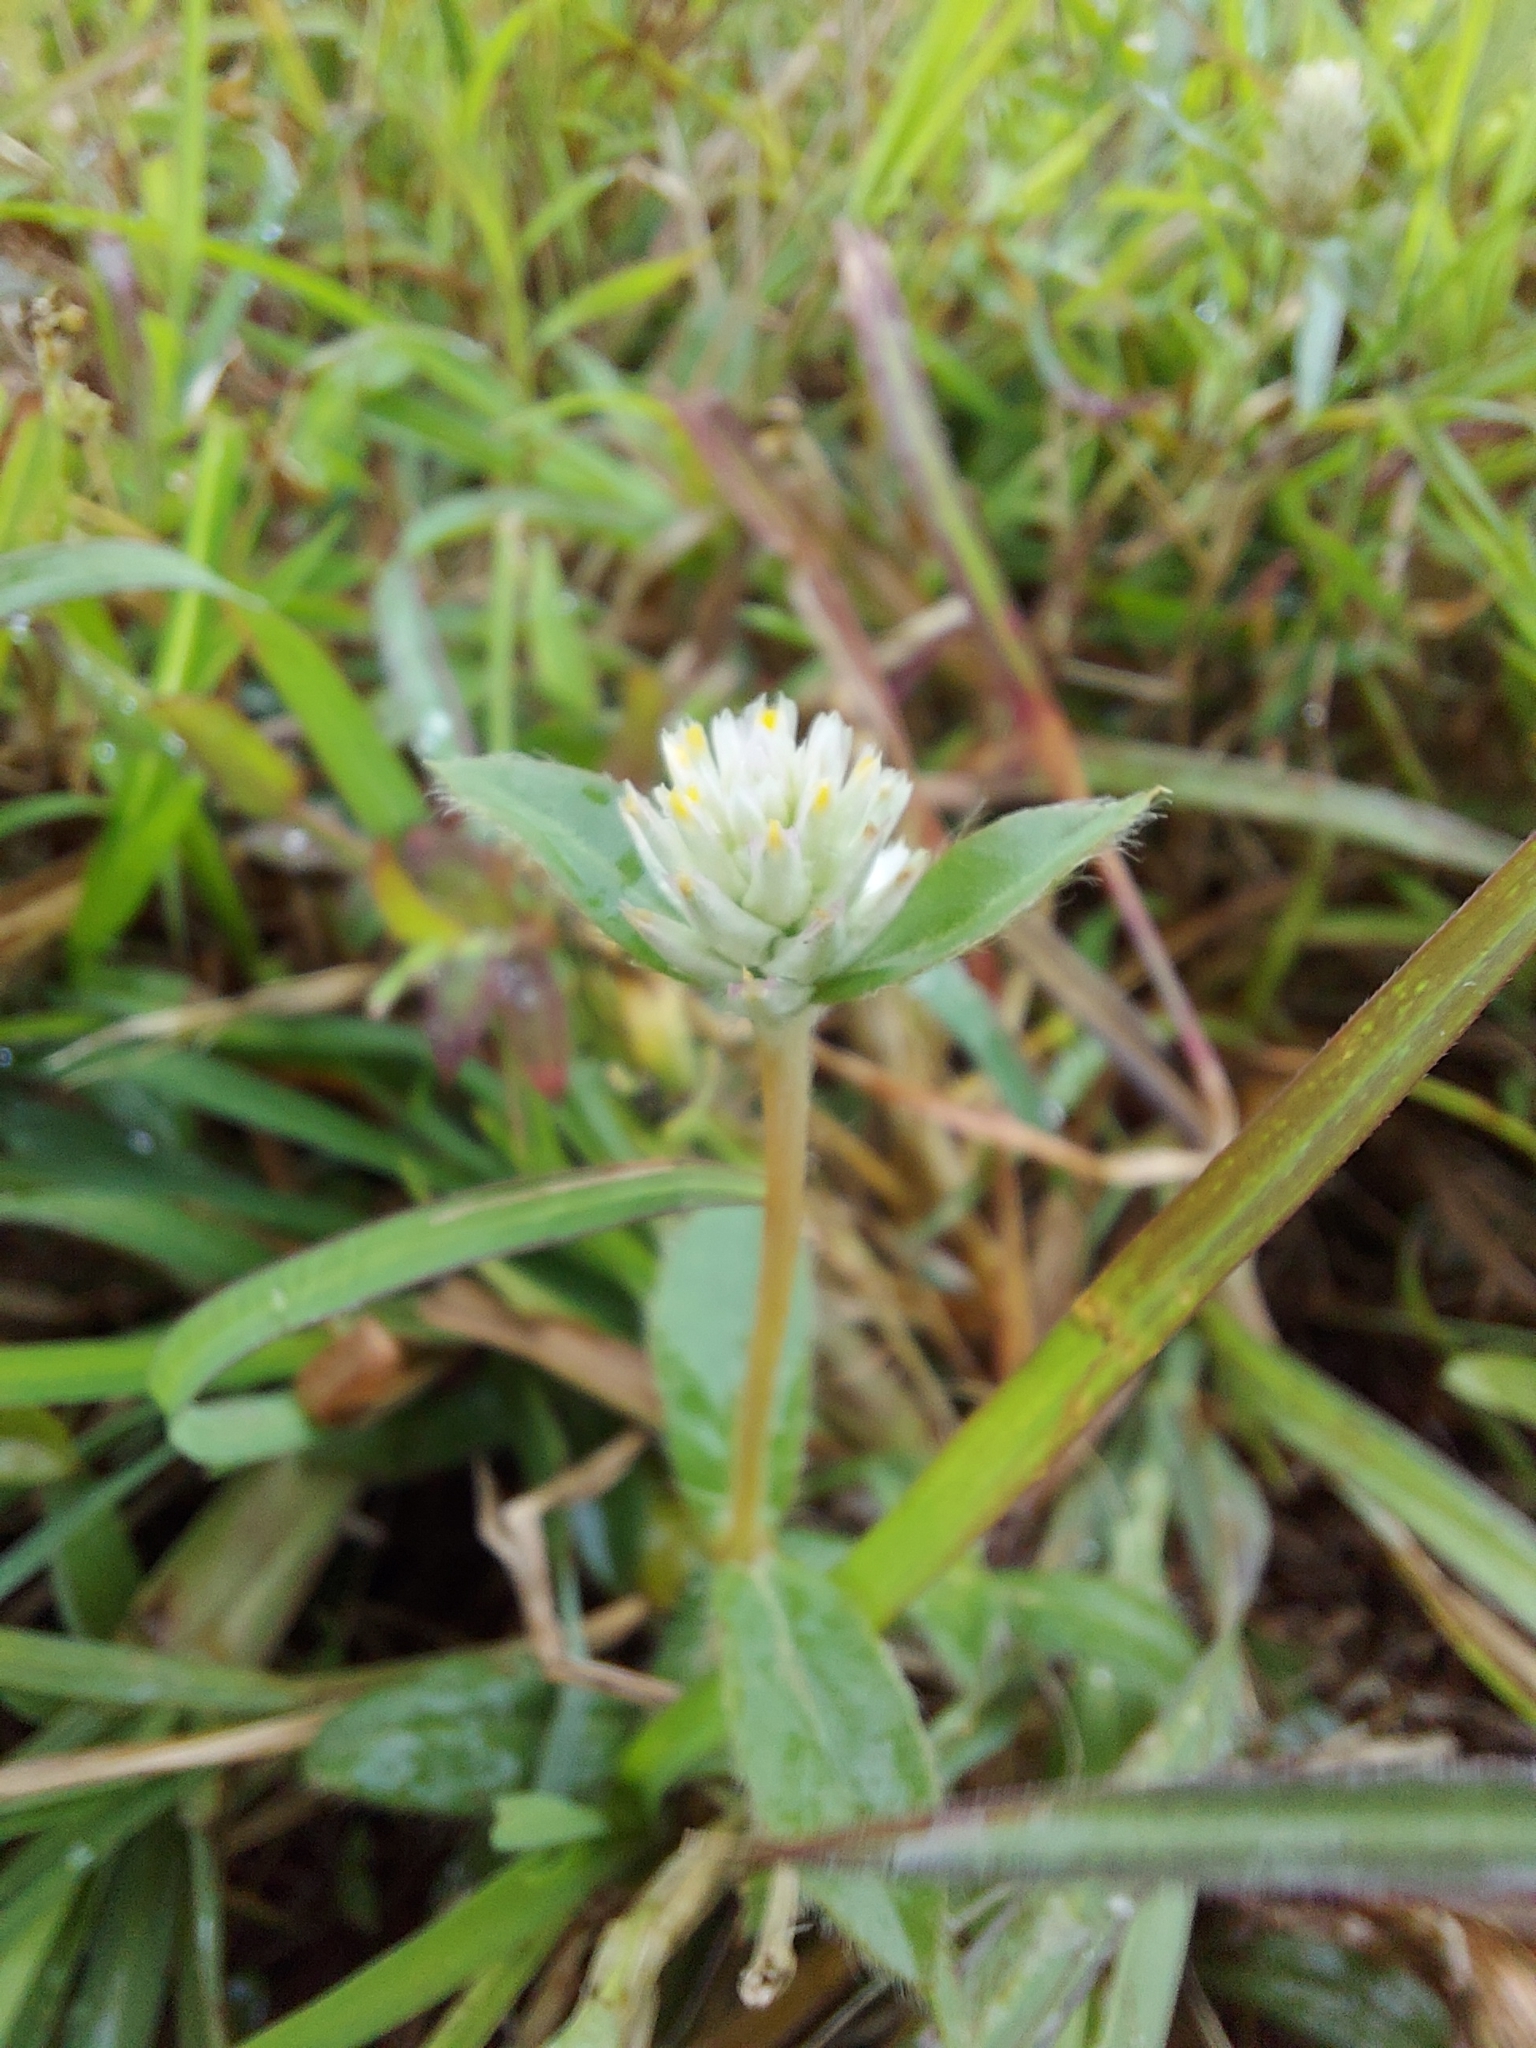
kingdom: Plantae
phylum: Tracheophyta
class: Magnoliopsida
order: Caryophyllales
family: Amaranthaceae
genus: Alternanthera
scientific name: Alternanthera sessilis
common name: Sessile joyweed
